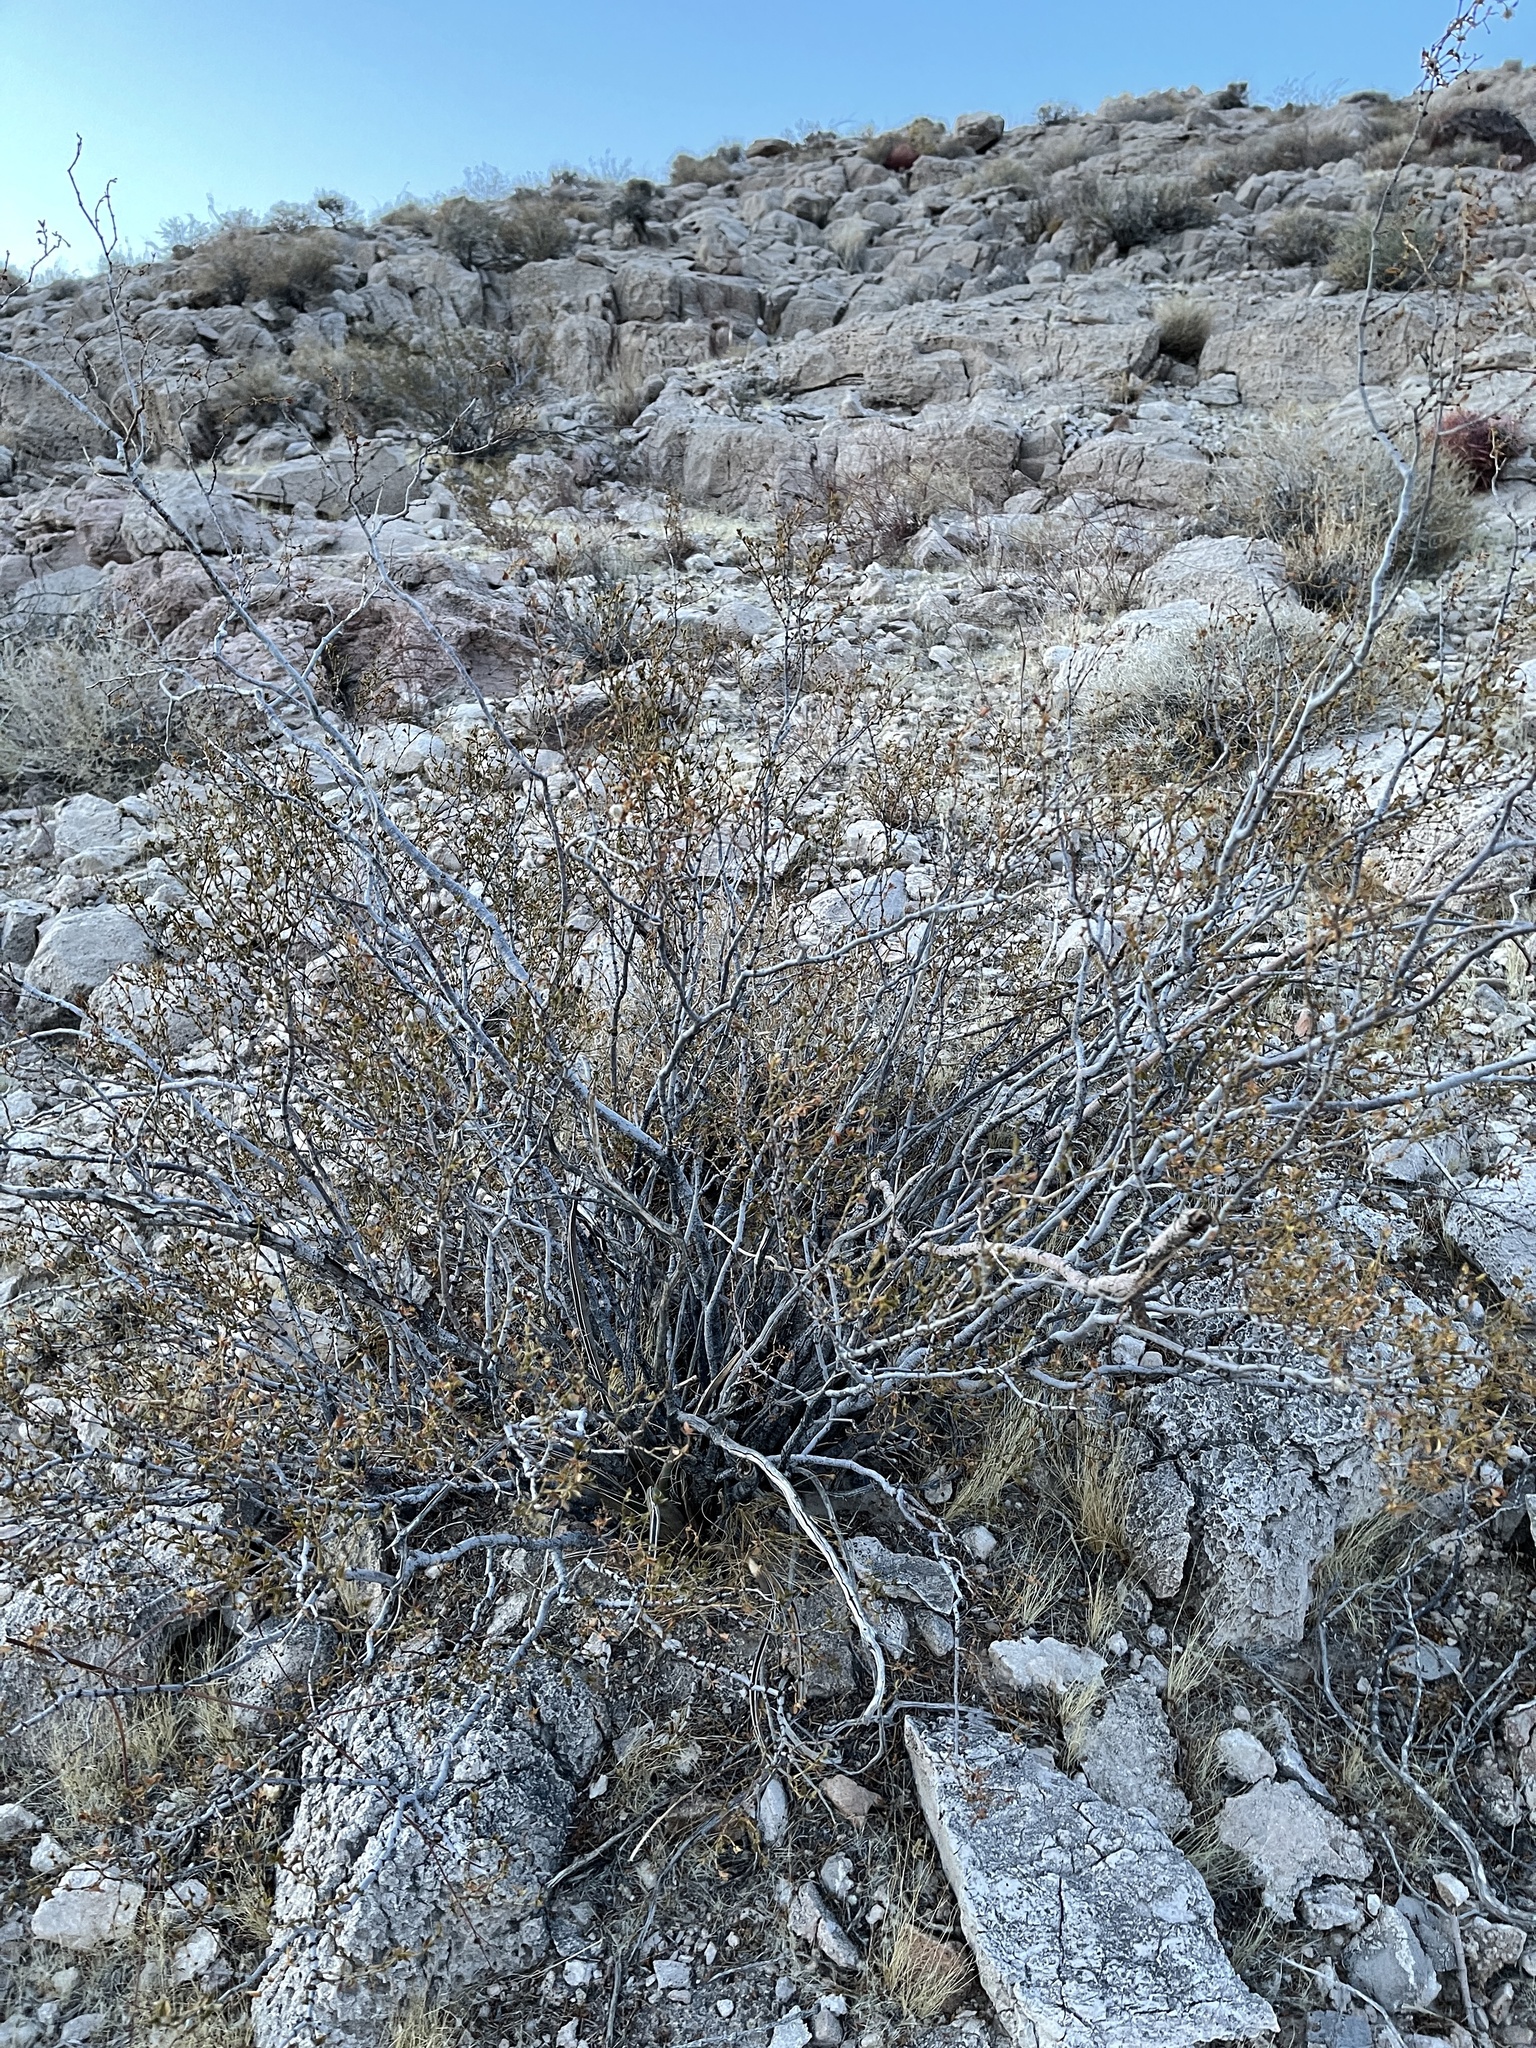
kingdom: Plantae
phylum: Tracheophyta
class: Magnoliopsida
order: Zygophyllales
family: Zygophyllaceae
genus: Larrea
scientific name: Larrea tridentata
